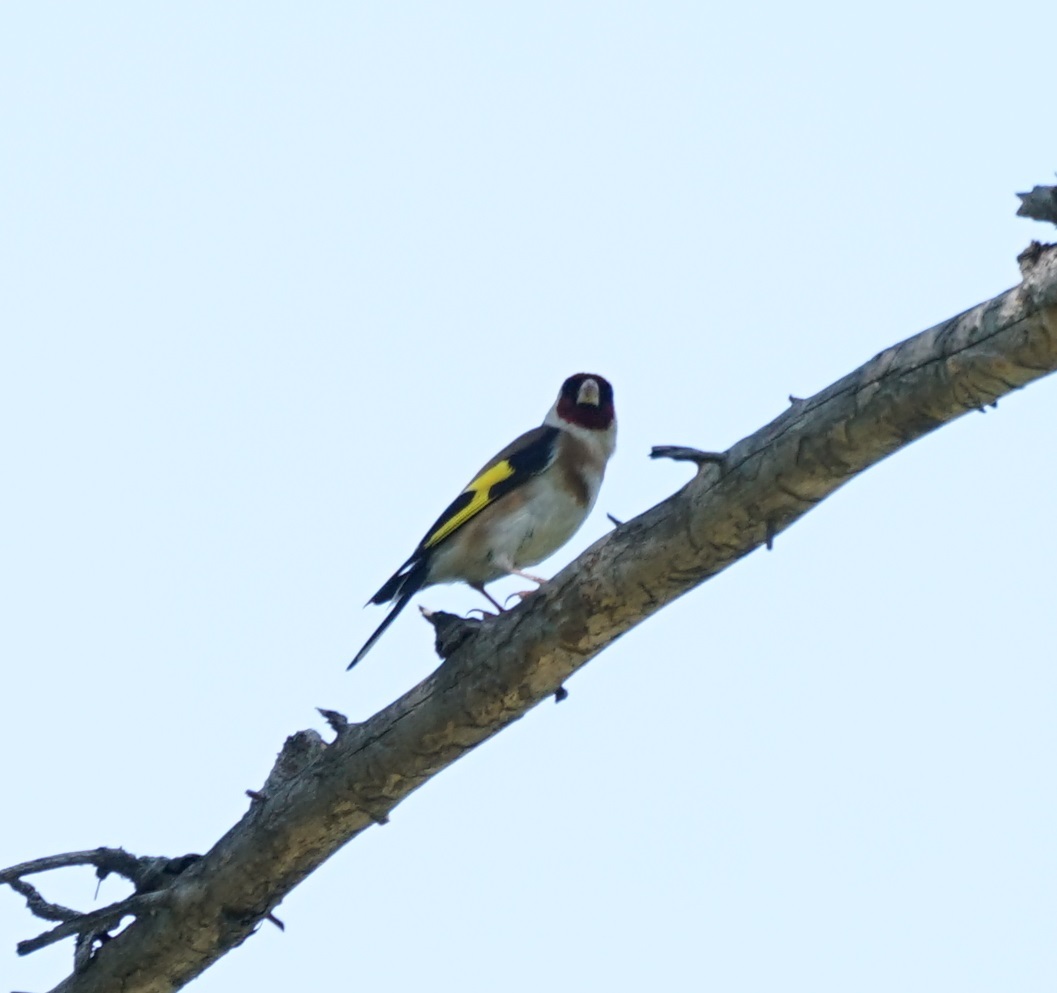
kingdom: Animalia
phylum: Chordata
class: Aves
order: Passeriformes
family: Fringillidae
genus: Carduelis
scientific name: Carduelis carduelis
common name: European goldfinch
